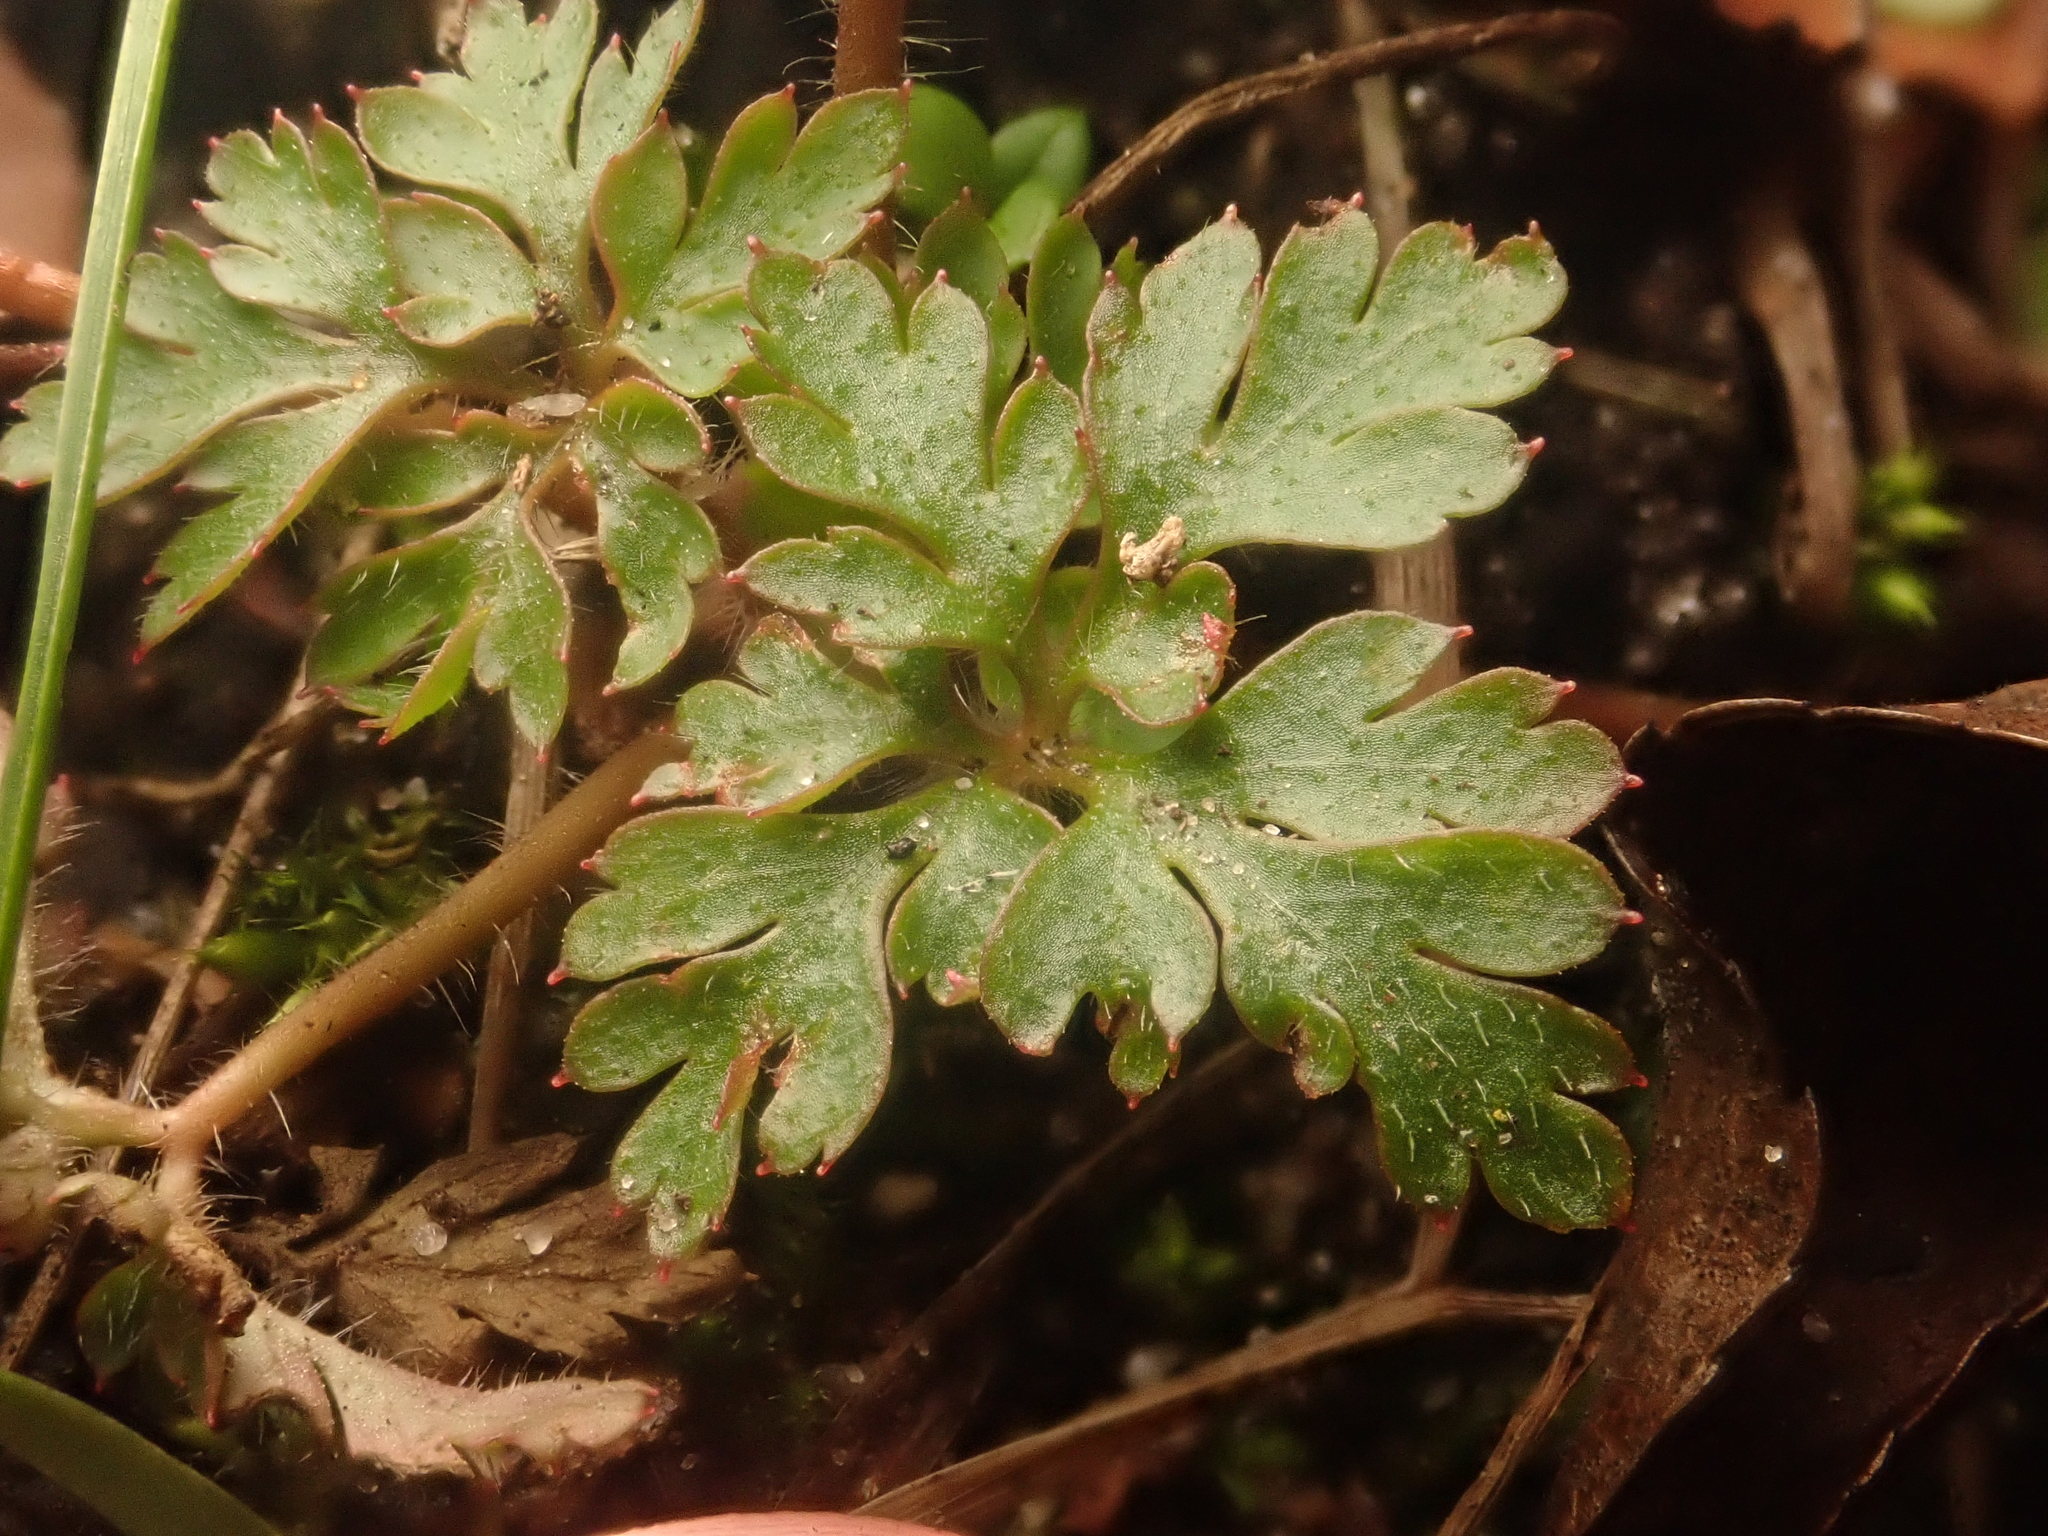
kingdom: Plantae
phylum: Tracheophyta
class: Magnoliopsida
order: Geraniales
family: Geraniaceae
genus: Geranium
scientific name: Geranium robertianum
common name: Herb-robert
